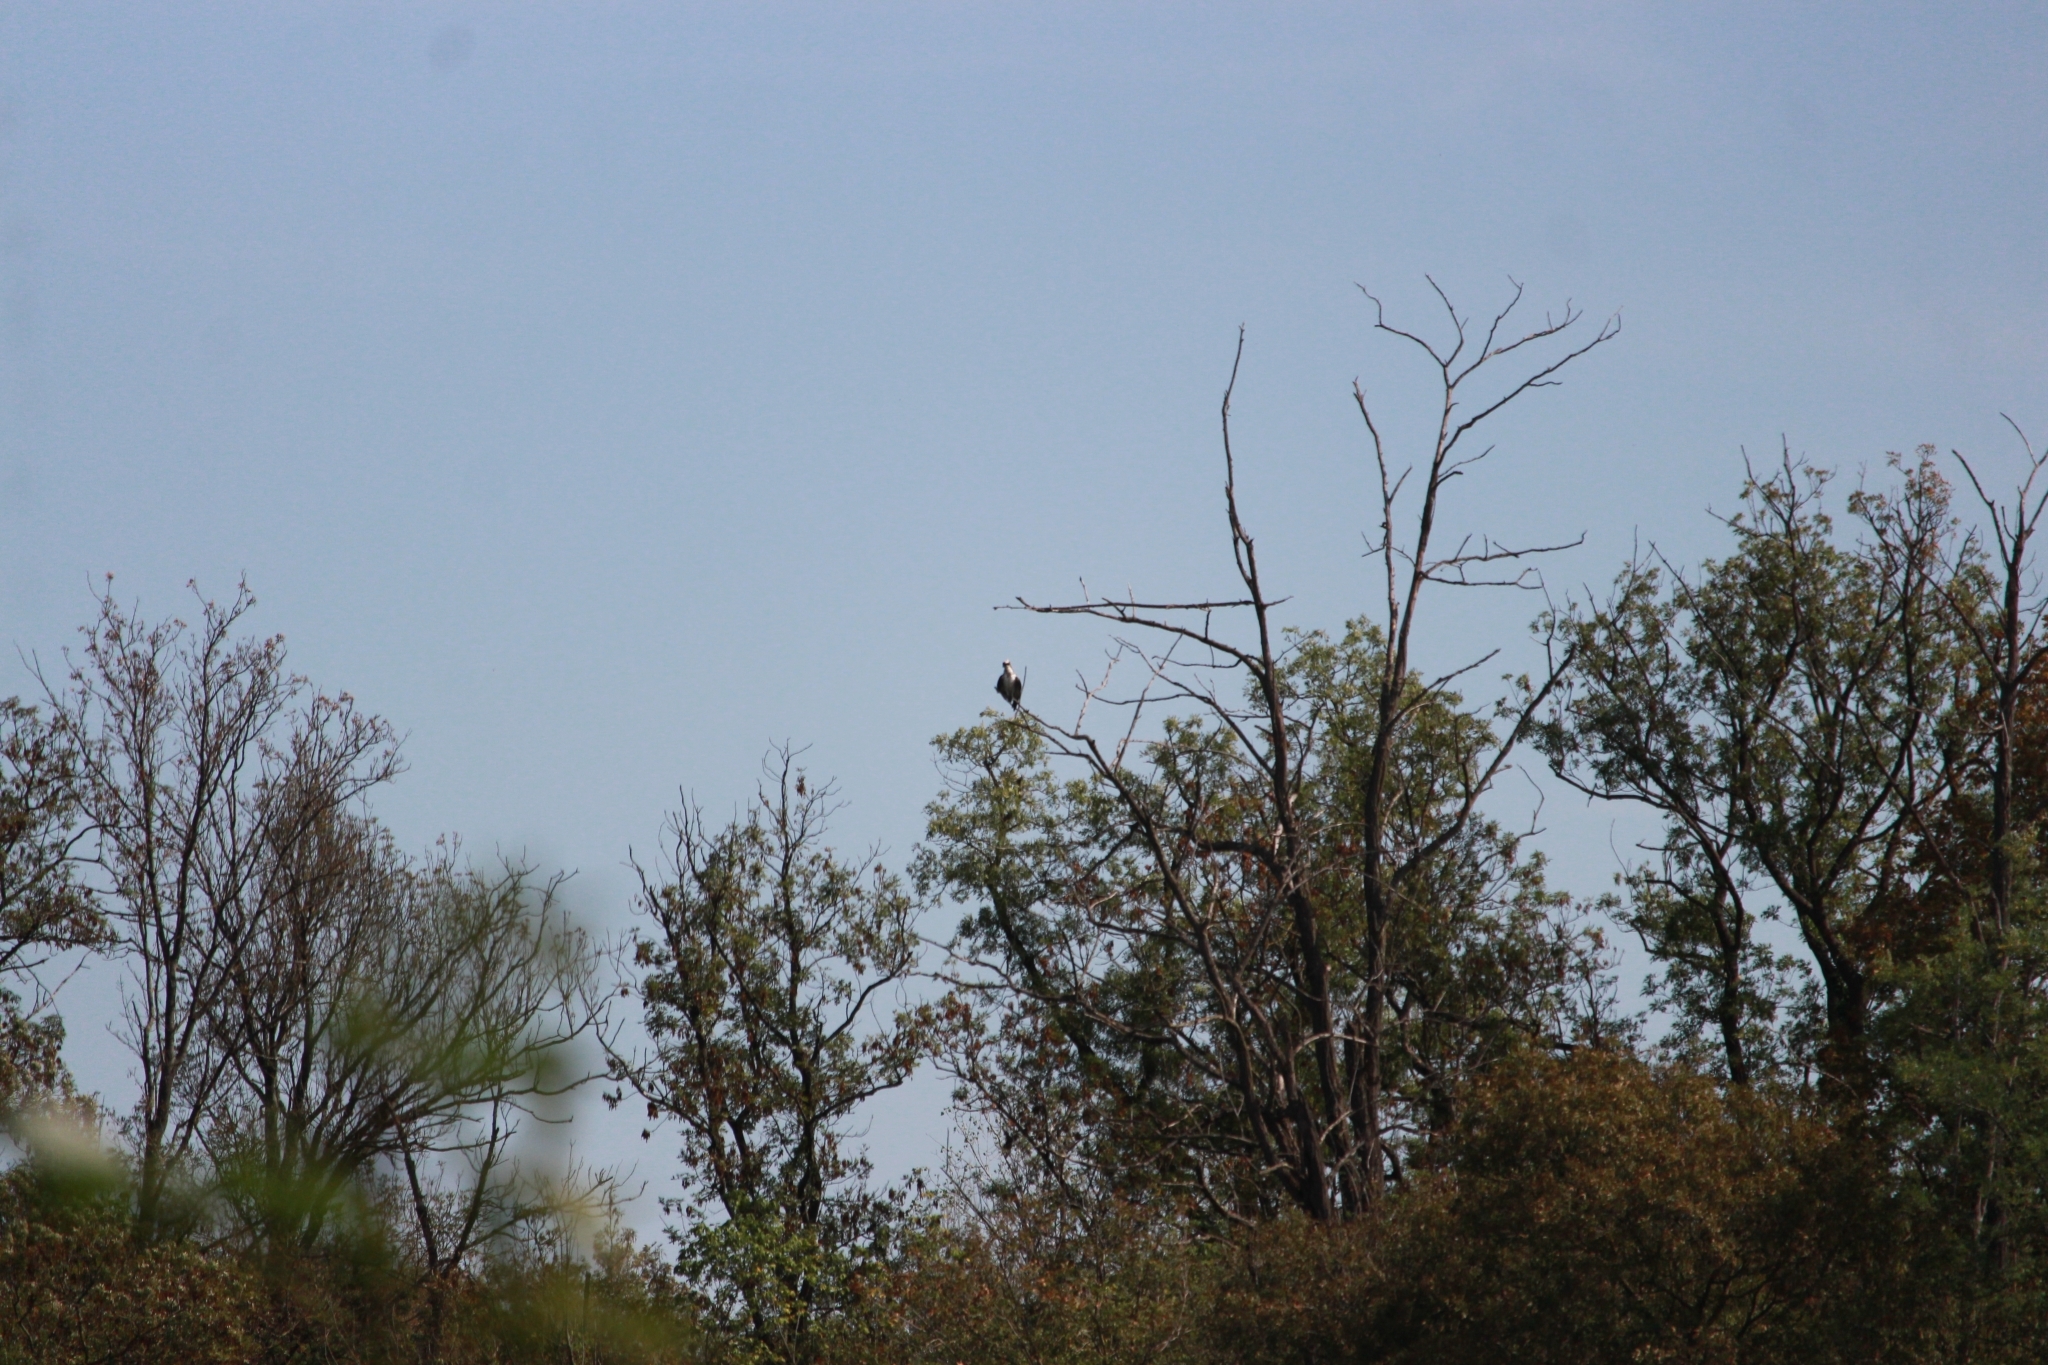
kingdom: Animalia
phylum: Chordata
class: Aves
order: Accipitriformes
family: Pandionidae
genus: Pandion
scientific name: Pandion haliaetus
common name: Osprey
